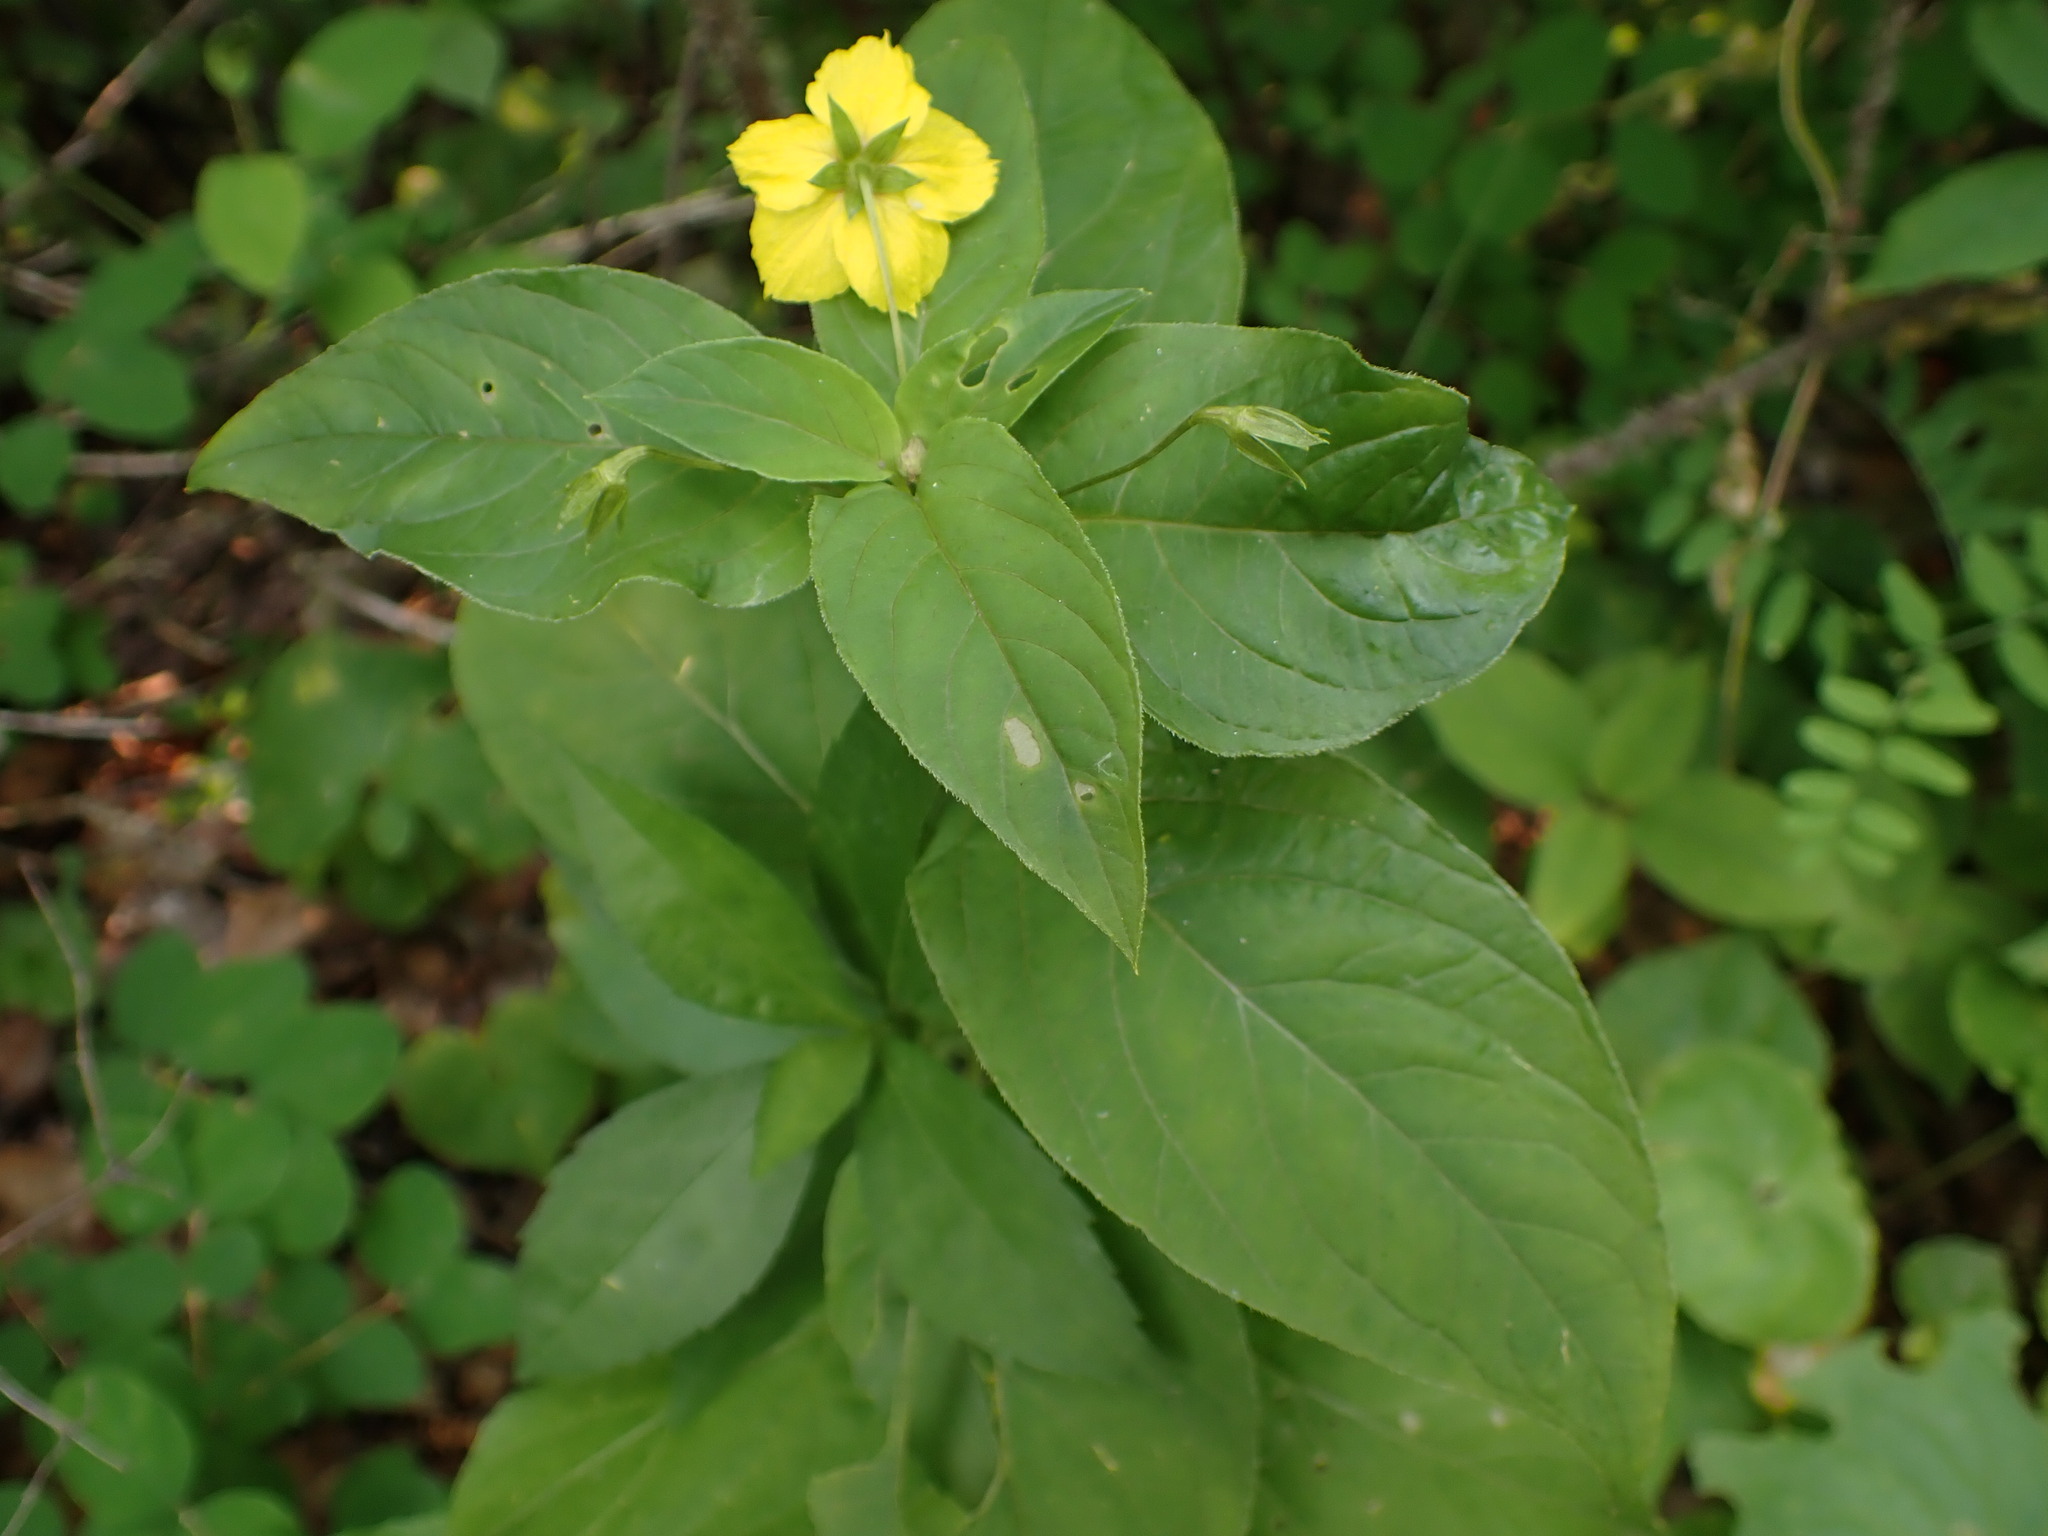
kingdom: Plantae
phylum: Tracheophyta
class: Magnoliopsida
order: Ericales
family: Primulaceae
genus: Lysimachia
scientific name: Lysimachia ciliata
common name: Fringed loosestrife
